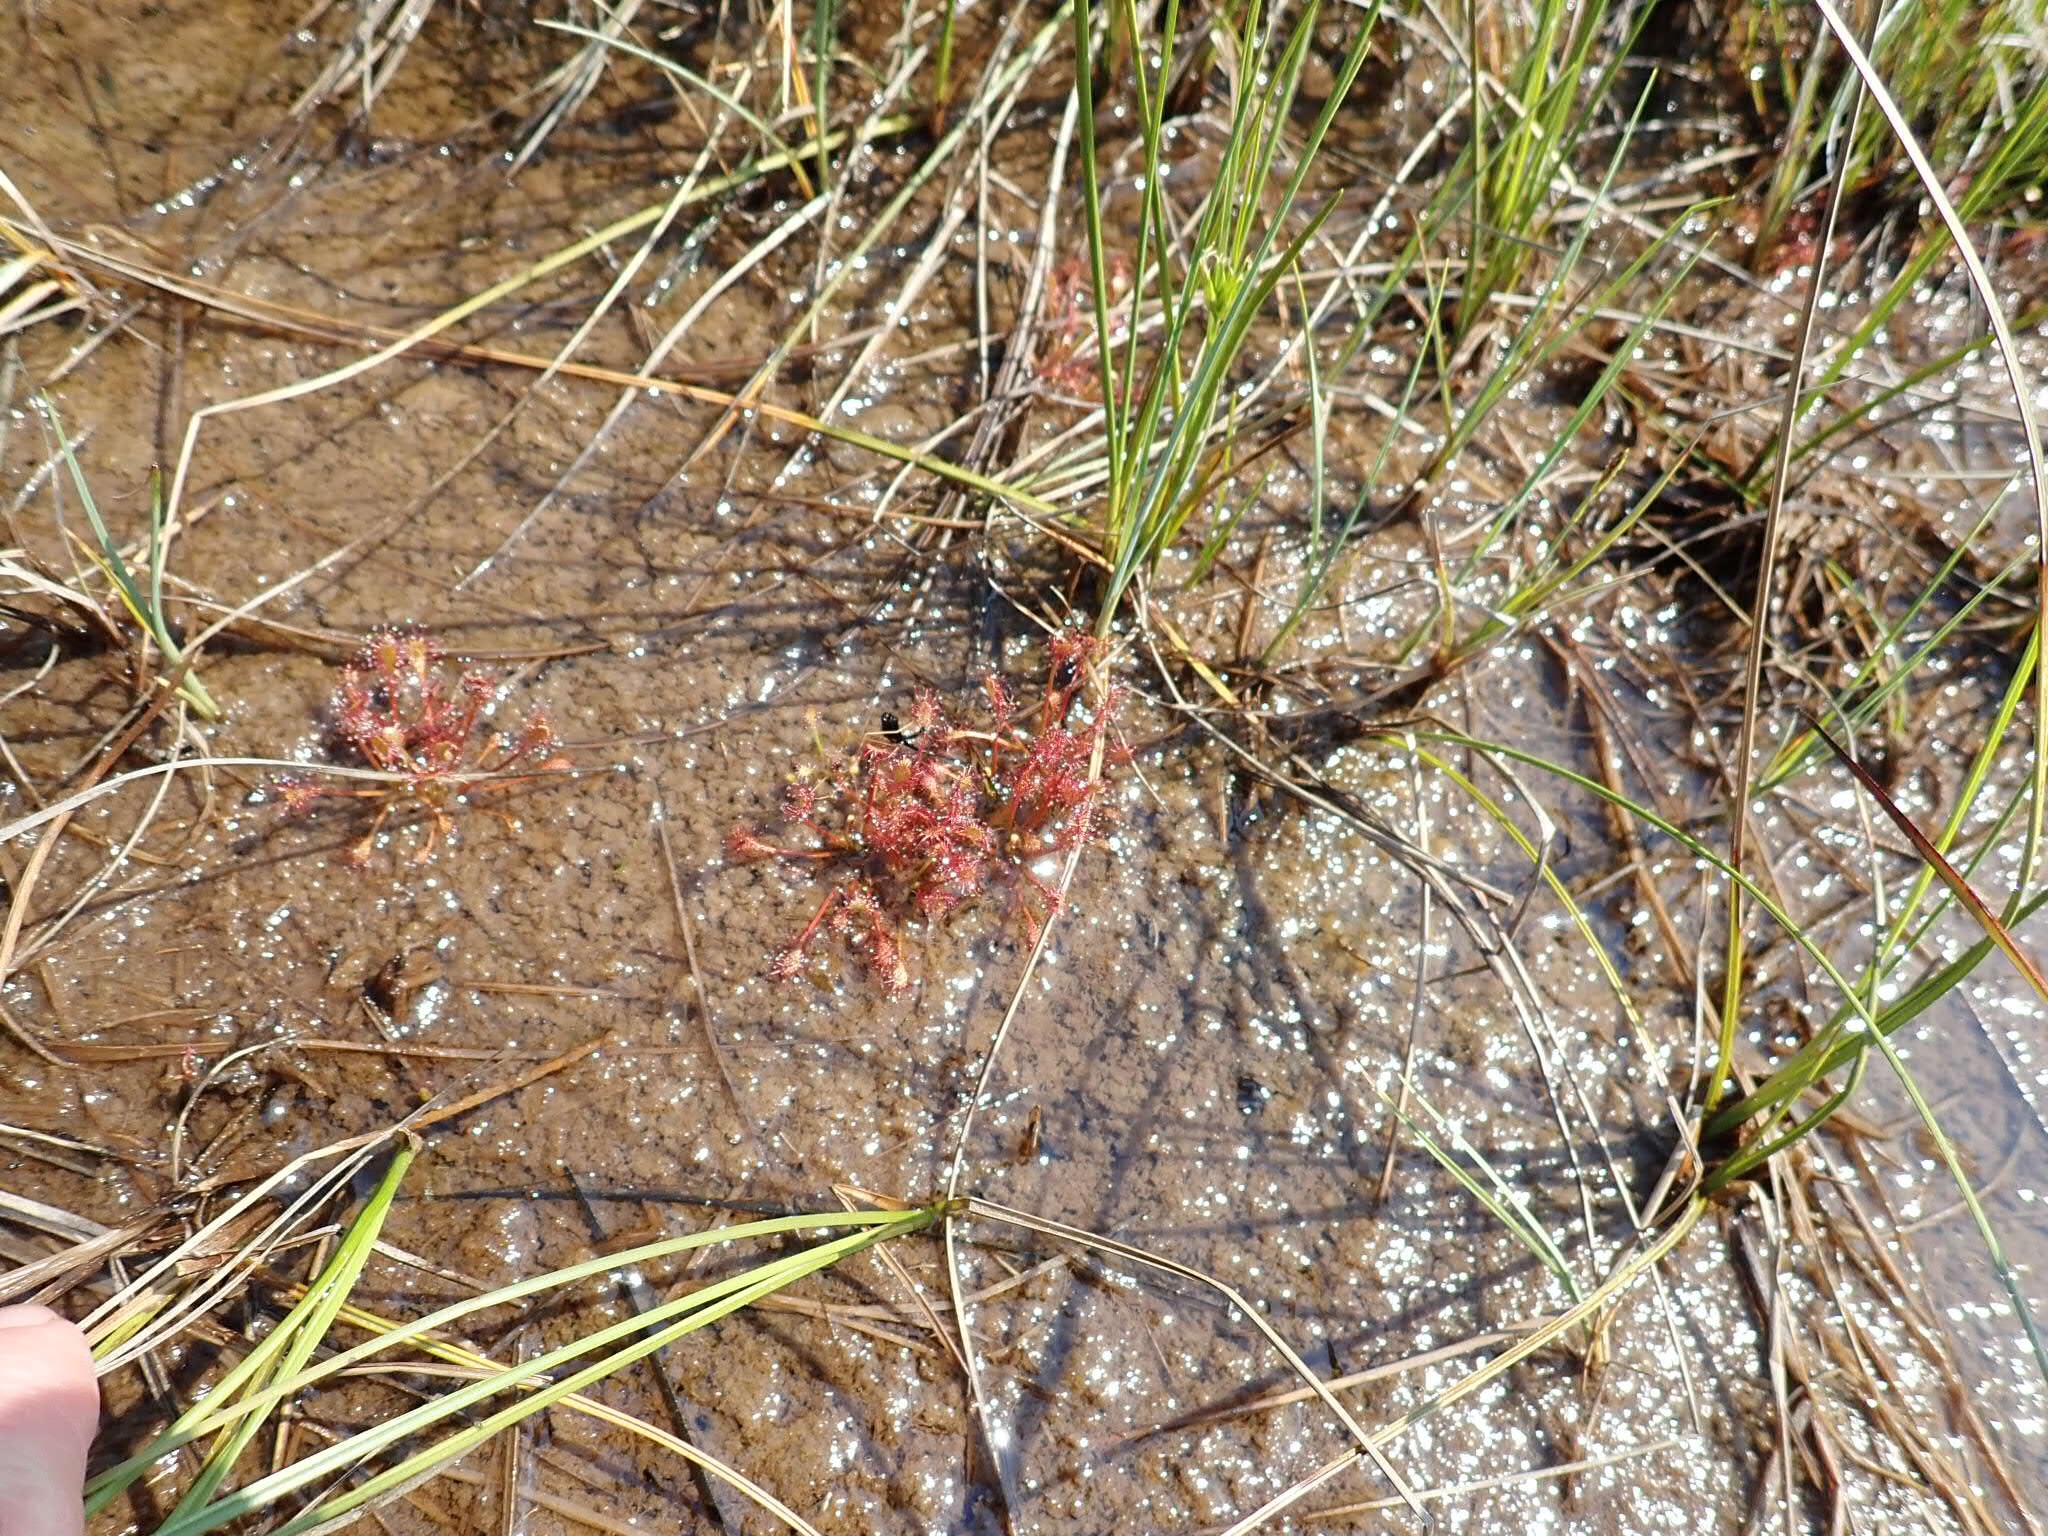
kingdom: Plantae
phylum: Tracheophyta
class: Magnoliopsida
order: Caryophyllales
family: Droseraceae
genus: Drosera
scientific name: Drosera intermedia
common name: Oblong-leaved sundew
